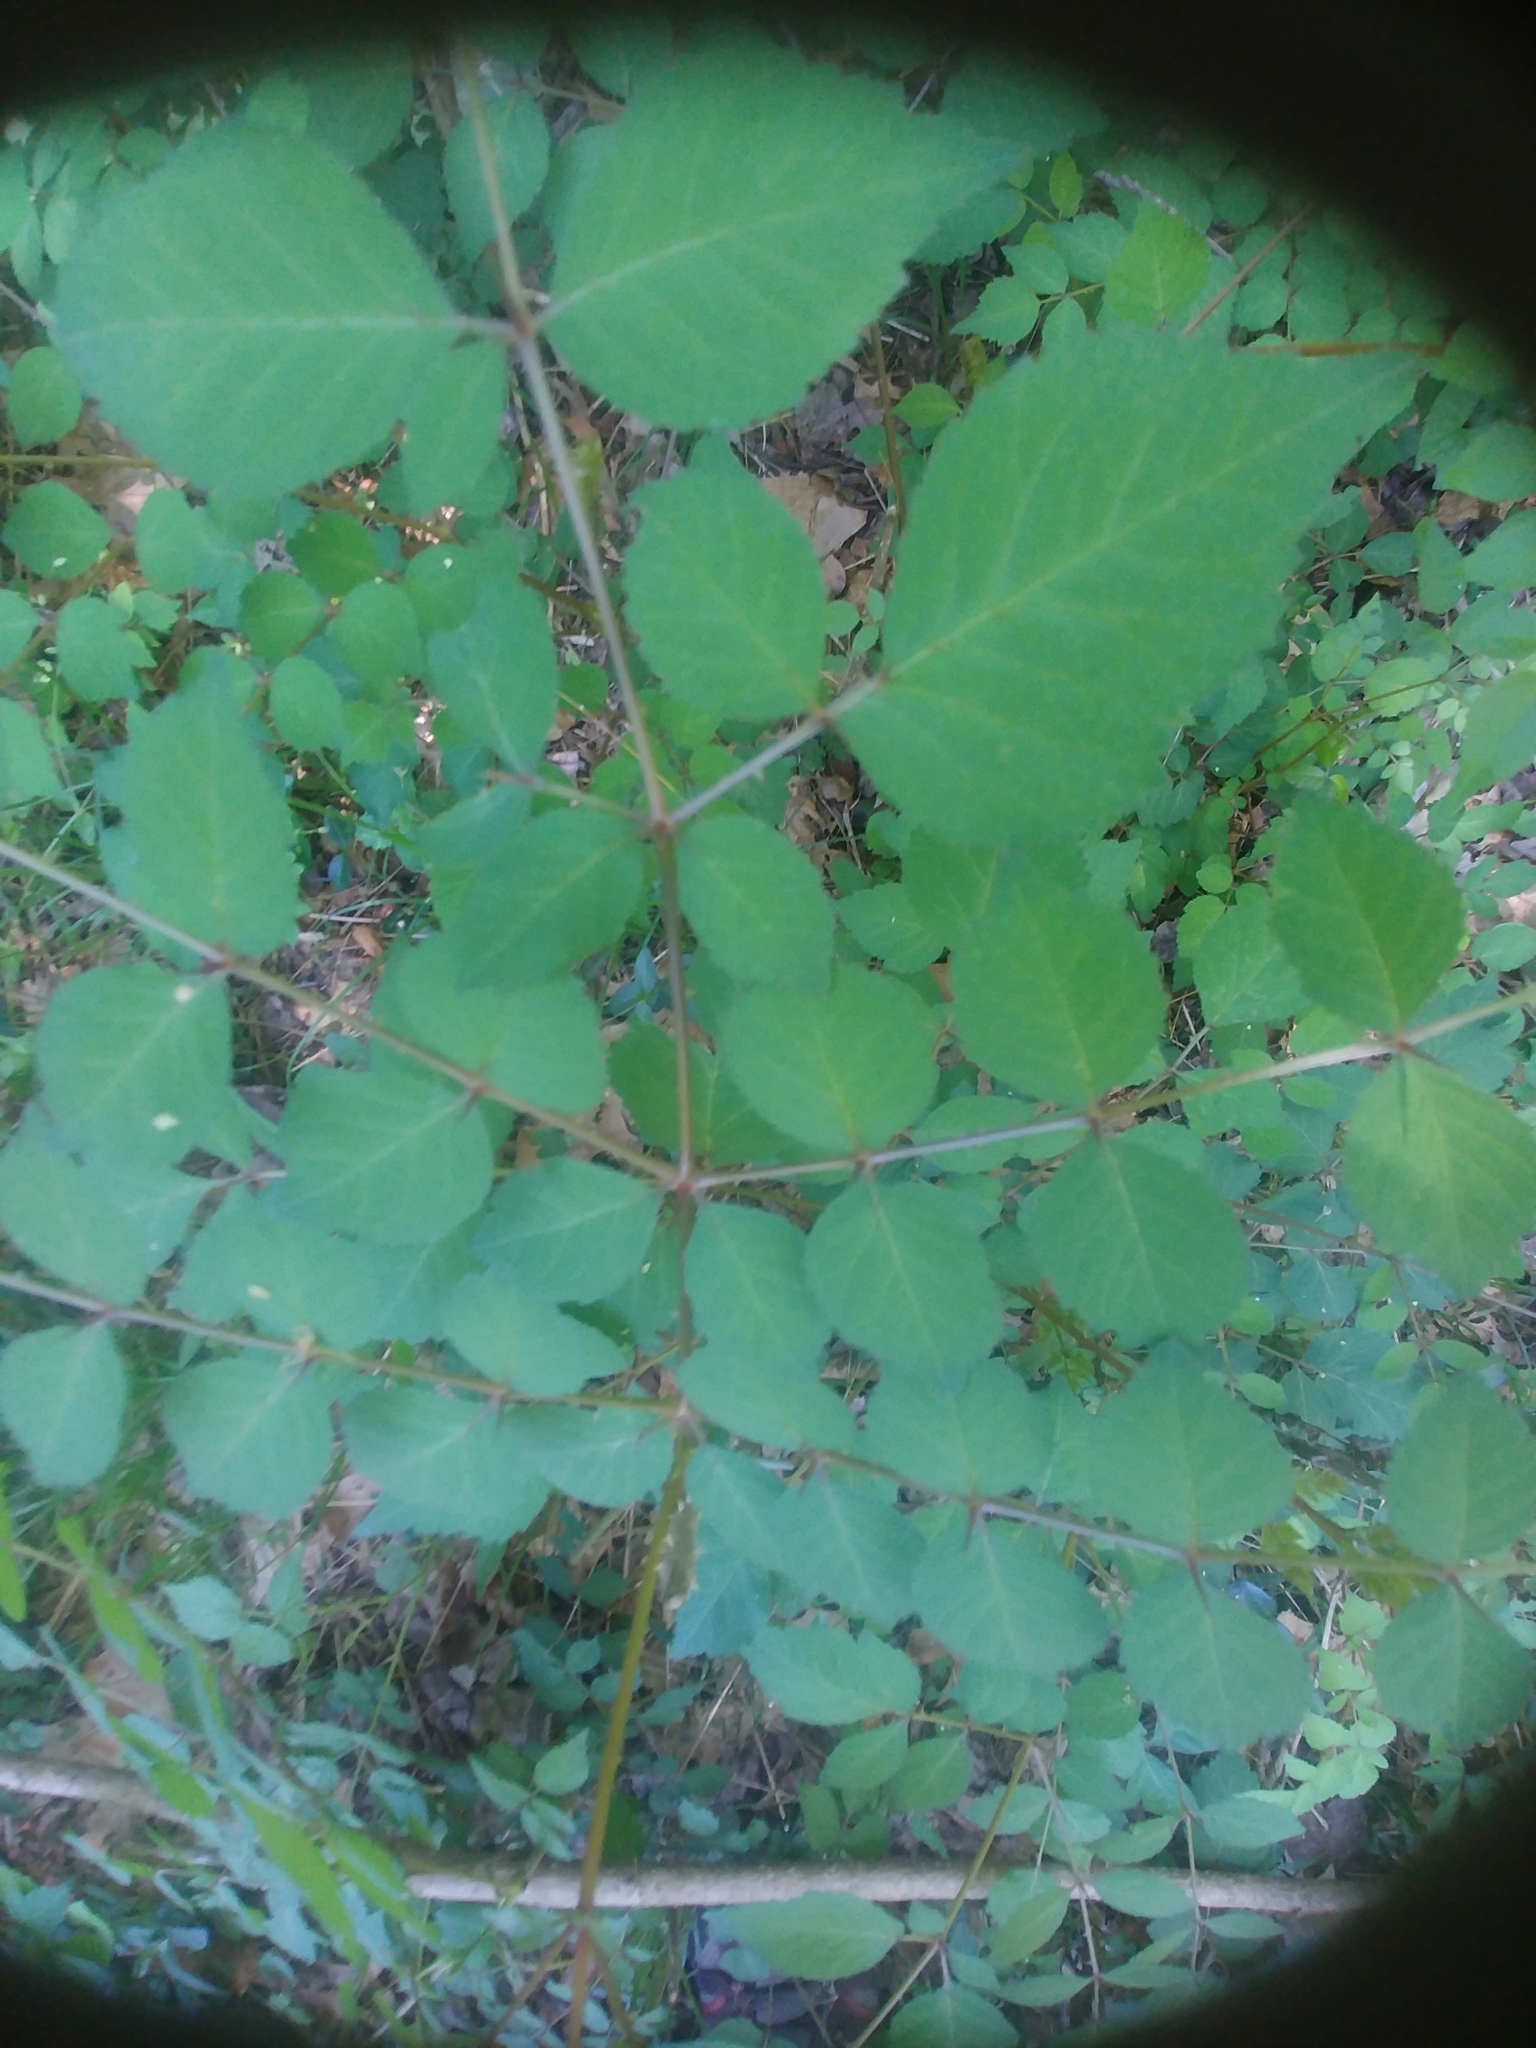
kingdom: Plantae
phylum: Tracheophyta
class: Magnoliopsida
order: Apiales
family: Araliaceae
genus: Aralia
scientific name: Aralia elata
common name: Japanese angelica-tree
